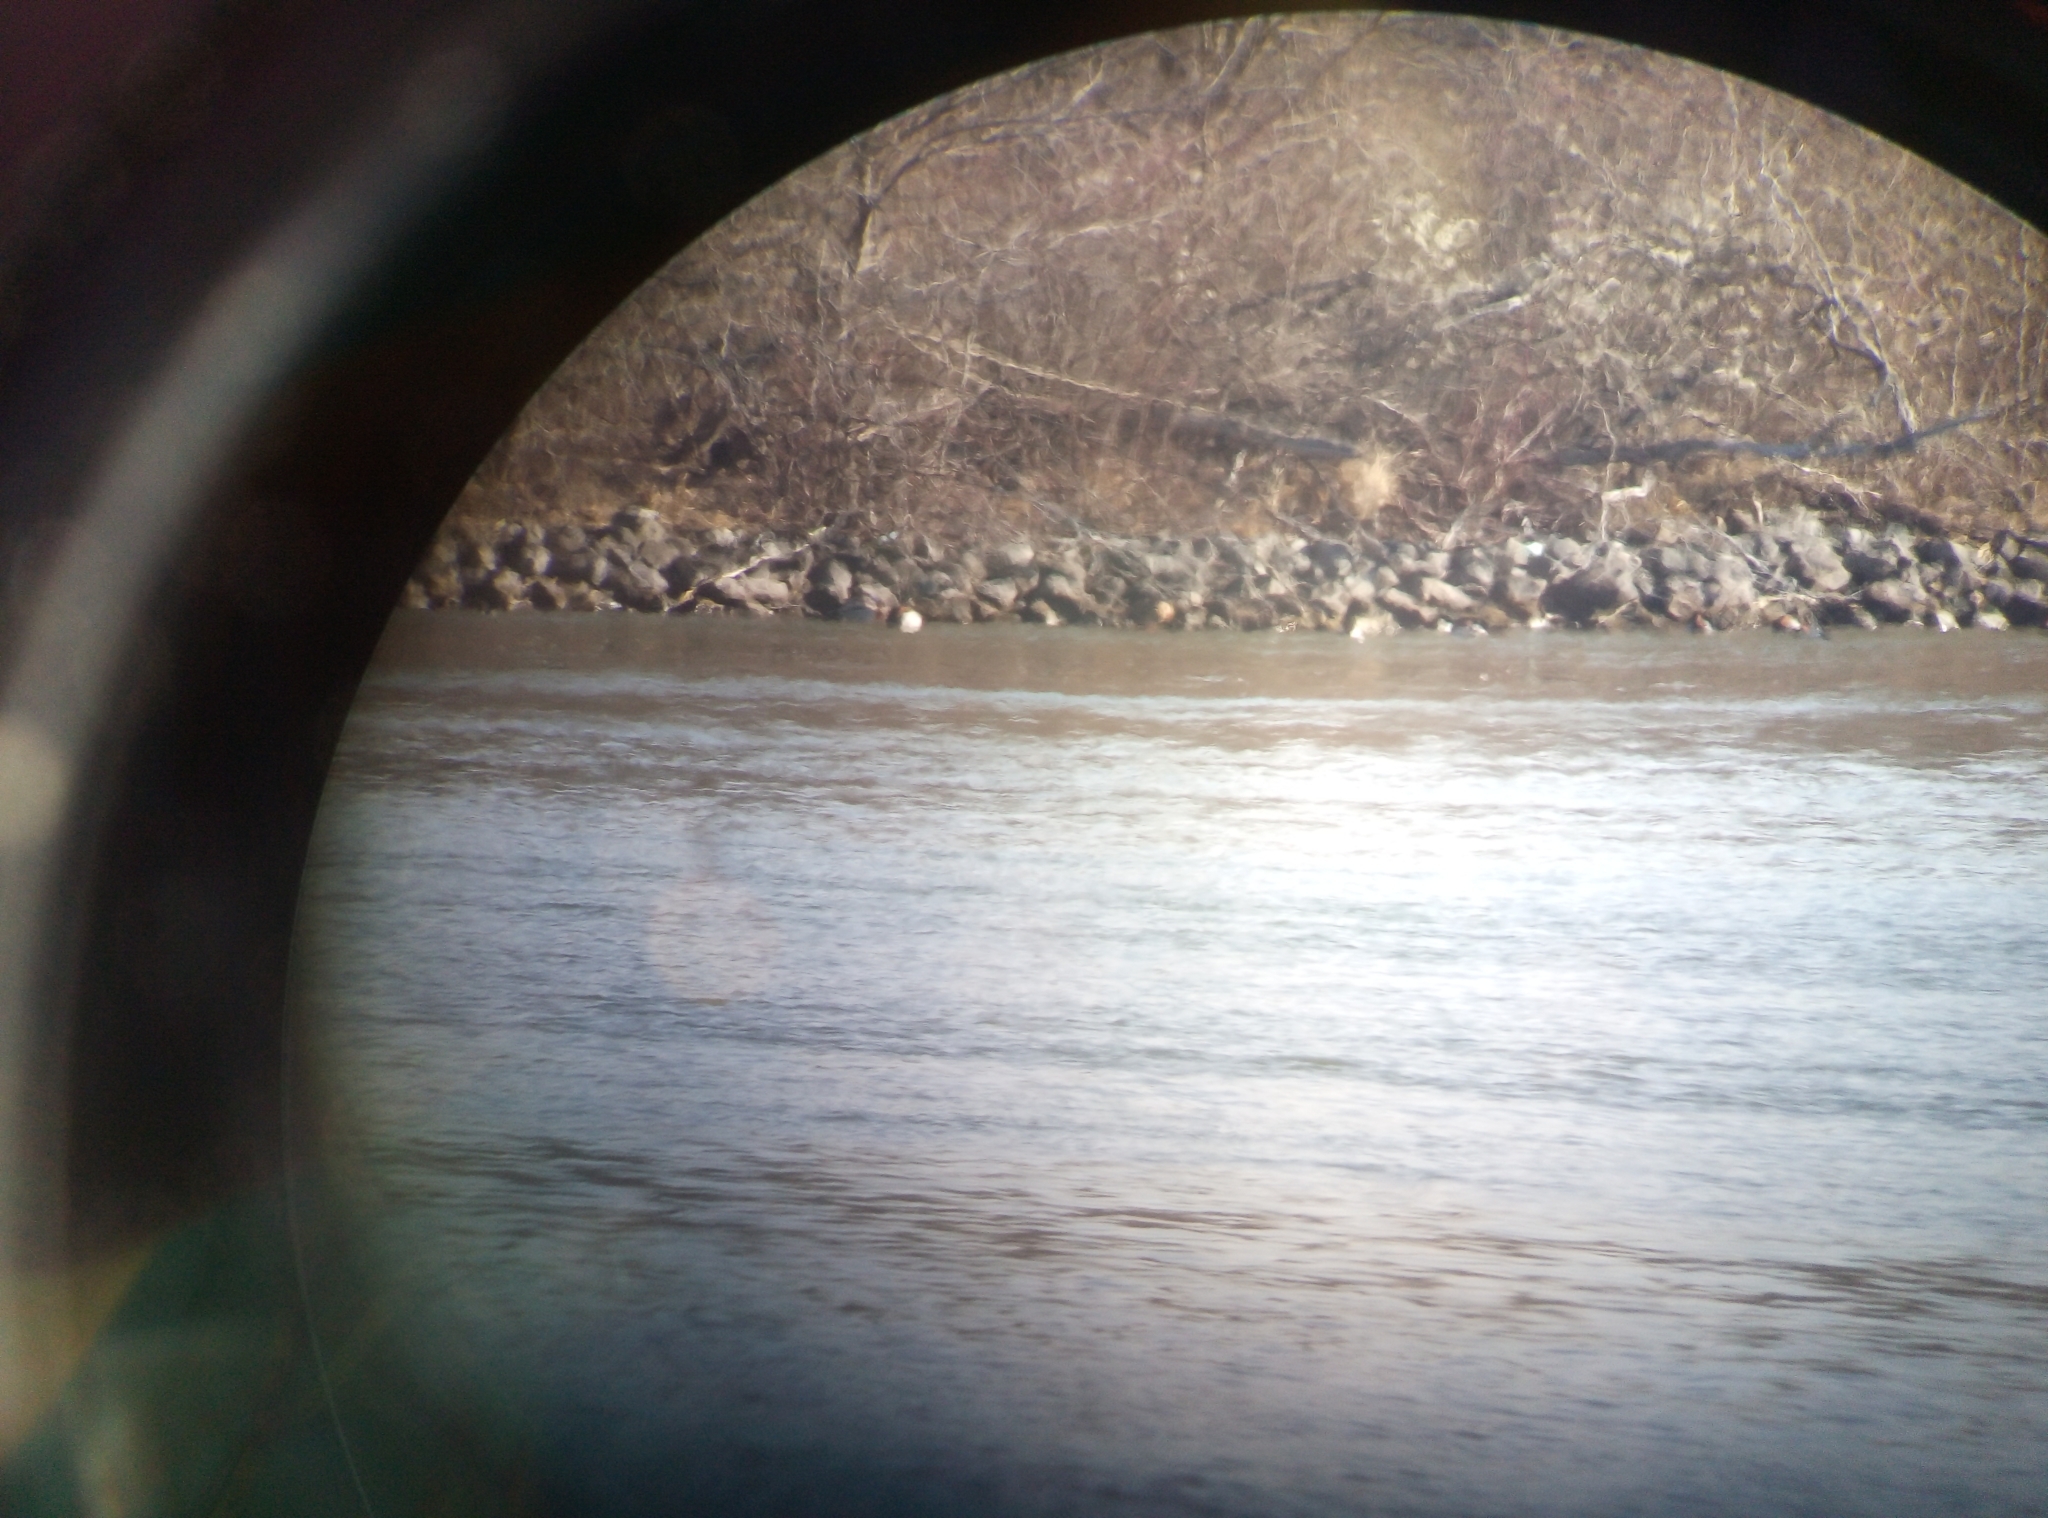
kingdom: Animalia
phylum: Chordata
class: Aves
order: Anseriformes
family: Anatidae
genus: Aythya
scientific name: Aythya ferina
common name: Common pochard
